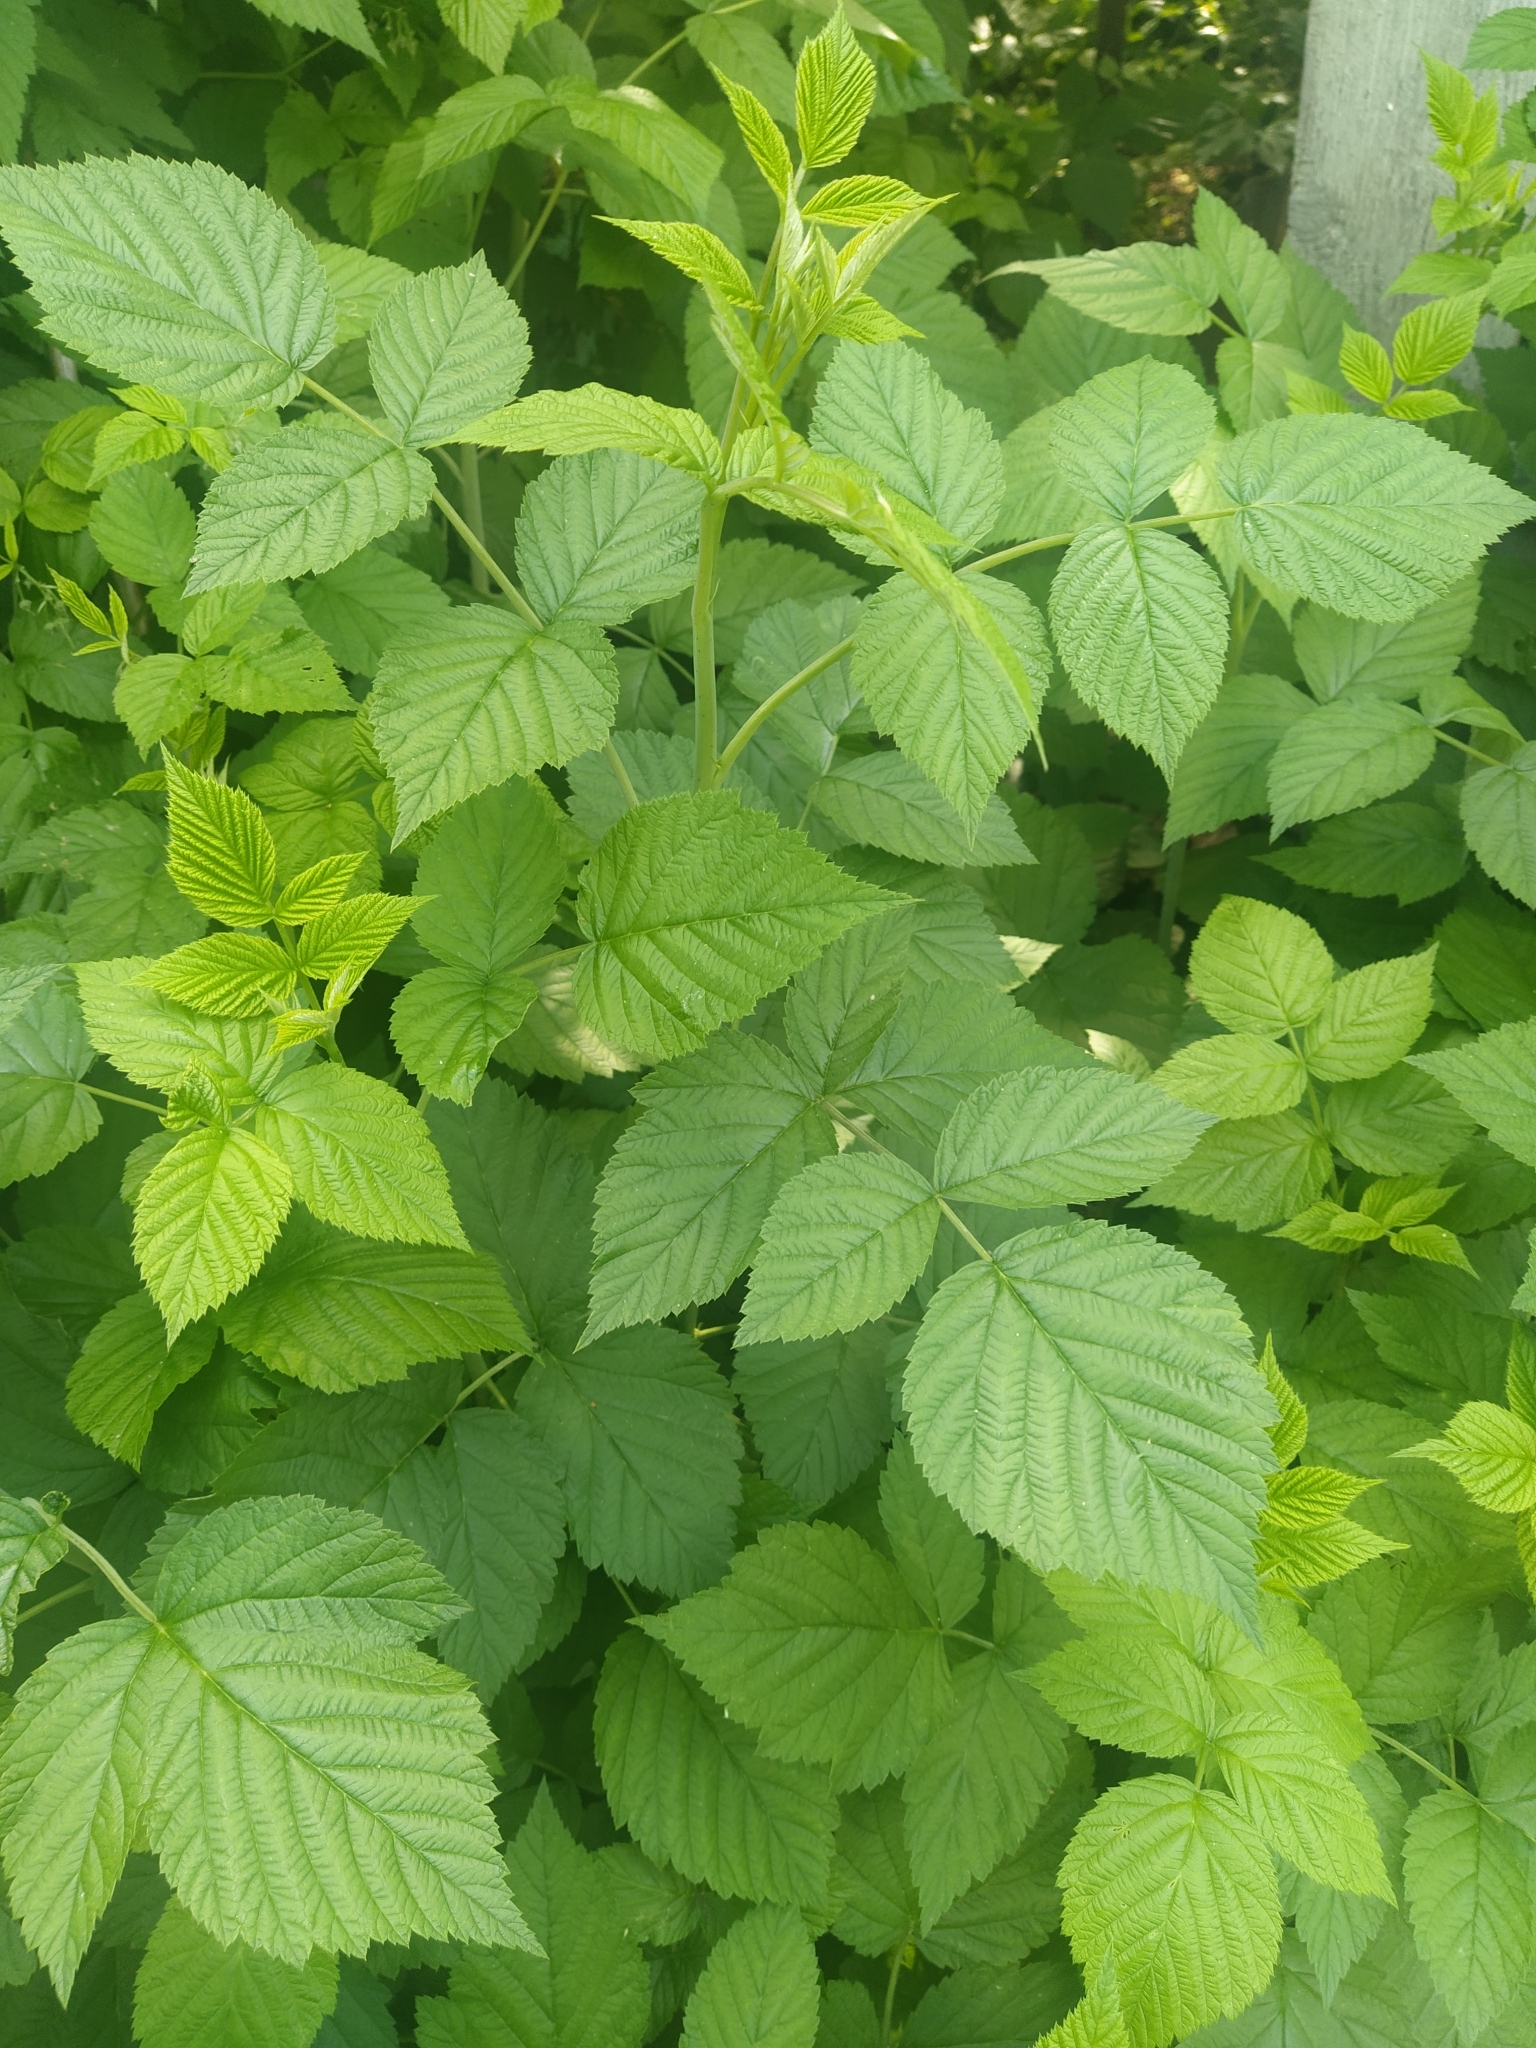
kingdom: Plantae
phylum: Tracheophyta
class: Magnoliopsida
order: Rosales
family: Rosaceae
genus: Rubus
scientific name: Rubus idaeus
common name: Raspberry
